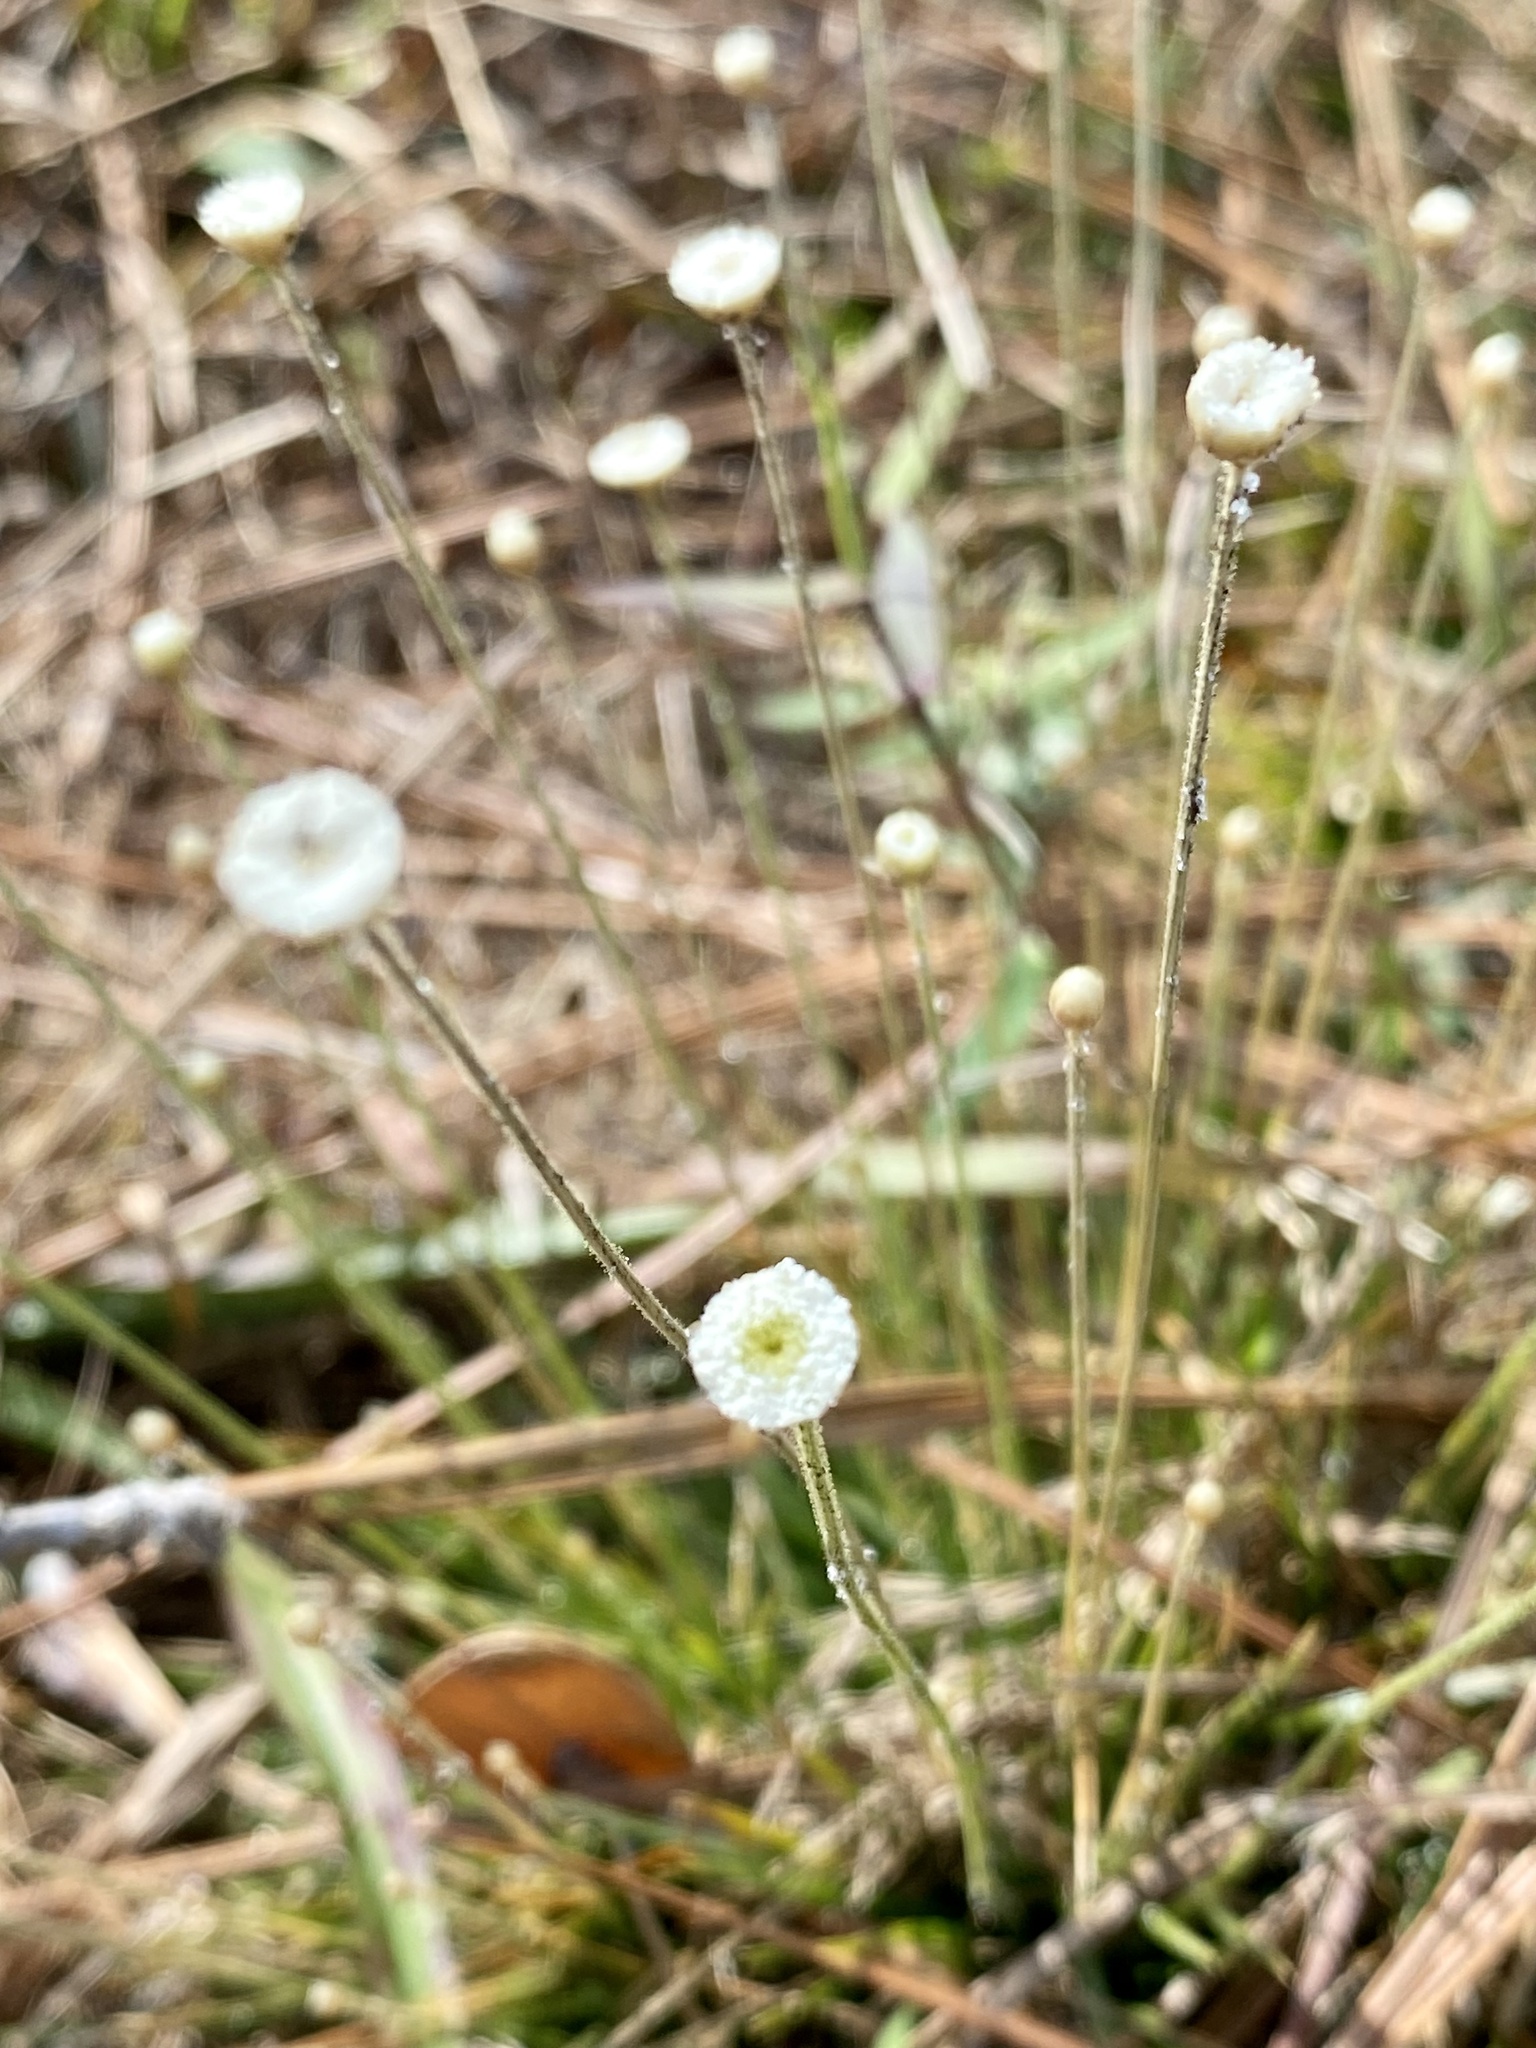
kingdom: Plantae
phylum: Tracheophyta
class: Liliopsida
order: Poales
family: Eriocaulaceae
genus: Syngonanthus
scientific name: Syngonanthus flavidulus
